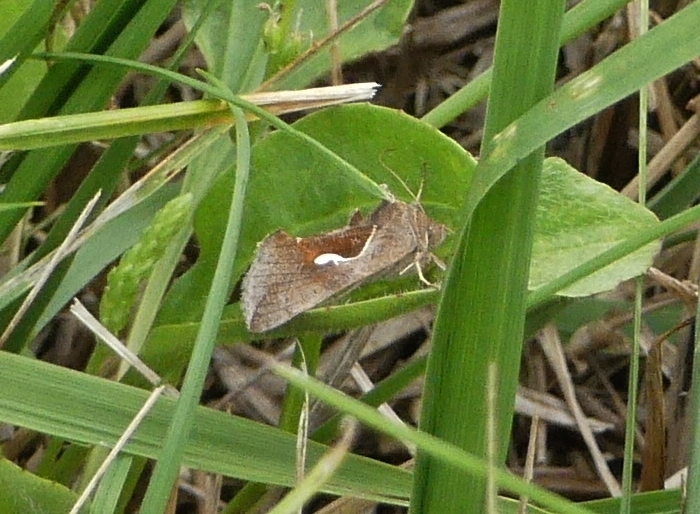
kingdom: Animalia
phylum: Arthropoda
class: Insecta
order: Lepidoptera
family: Noctuidae
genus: Anagrapha
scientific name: Anagrapha falcifera
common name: Celery looper
